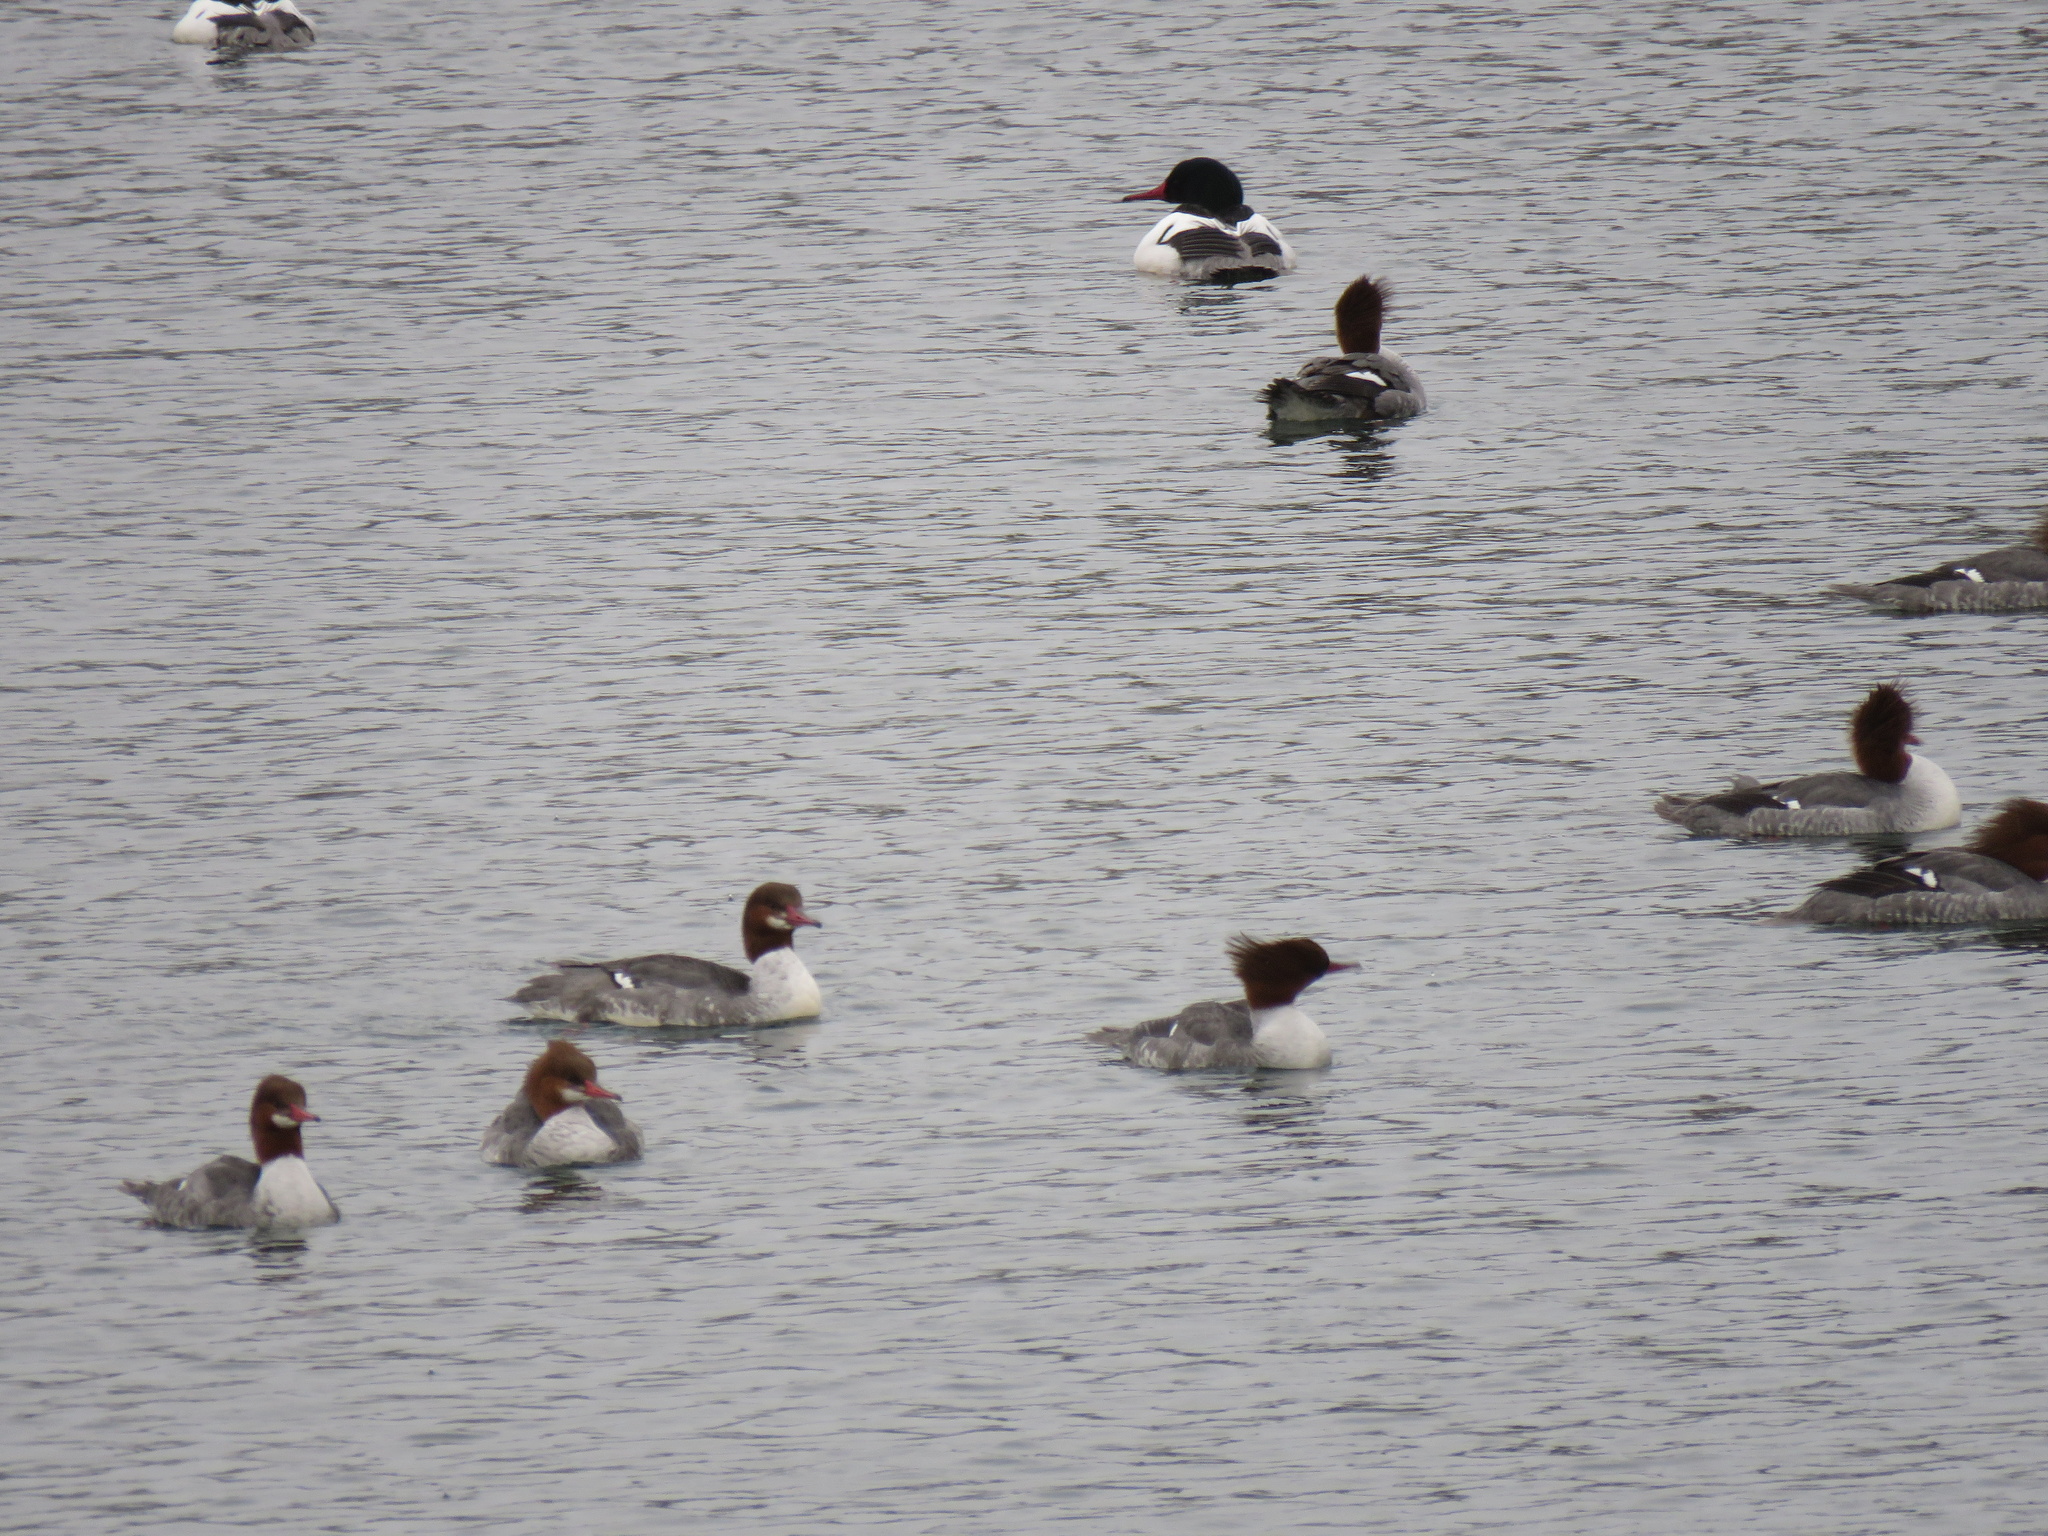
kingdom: Animalia
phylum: Chordata
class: Aves
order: Anseriformes
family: Anatidae
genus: Mergus
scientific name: Mergus merganser
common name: Common merganser
